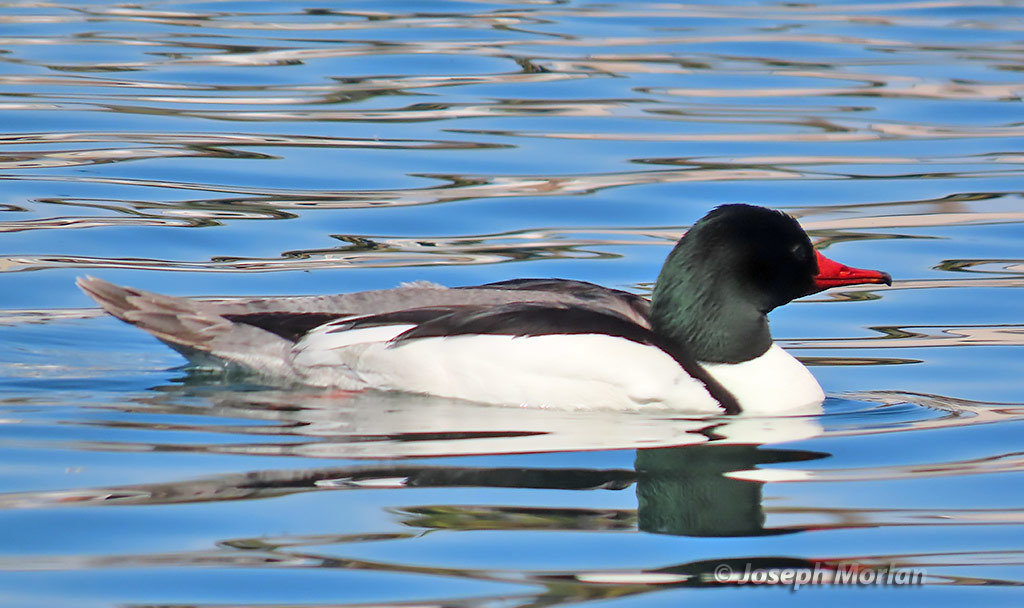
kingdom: Animalia
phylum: Chordata
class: Aves
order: Anseriformes
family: Anatidae
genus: Mergus
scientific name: Mergus merganser
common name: Common merganser
